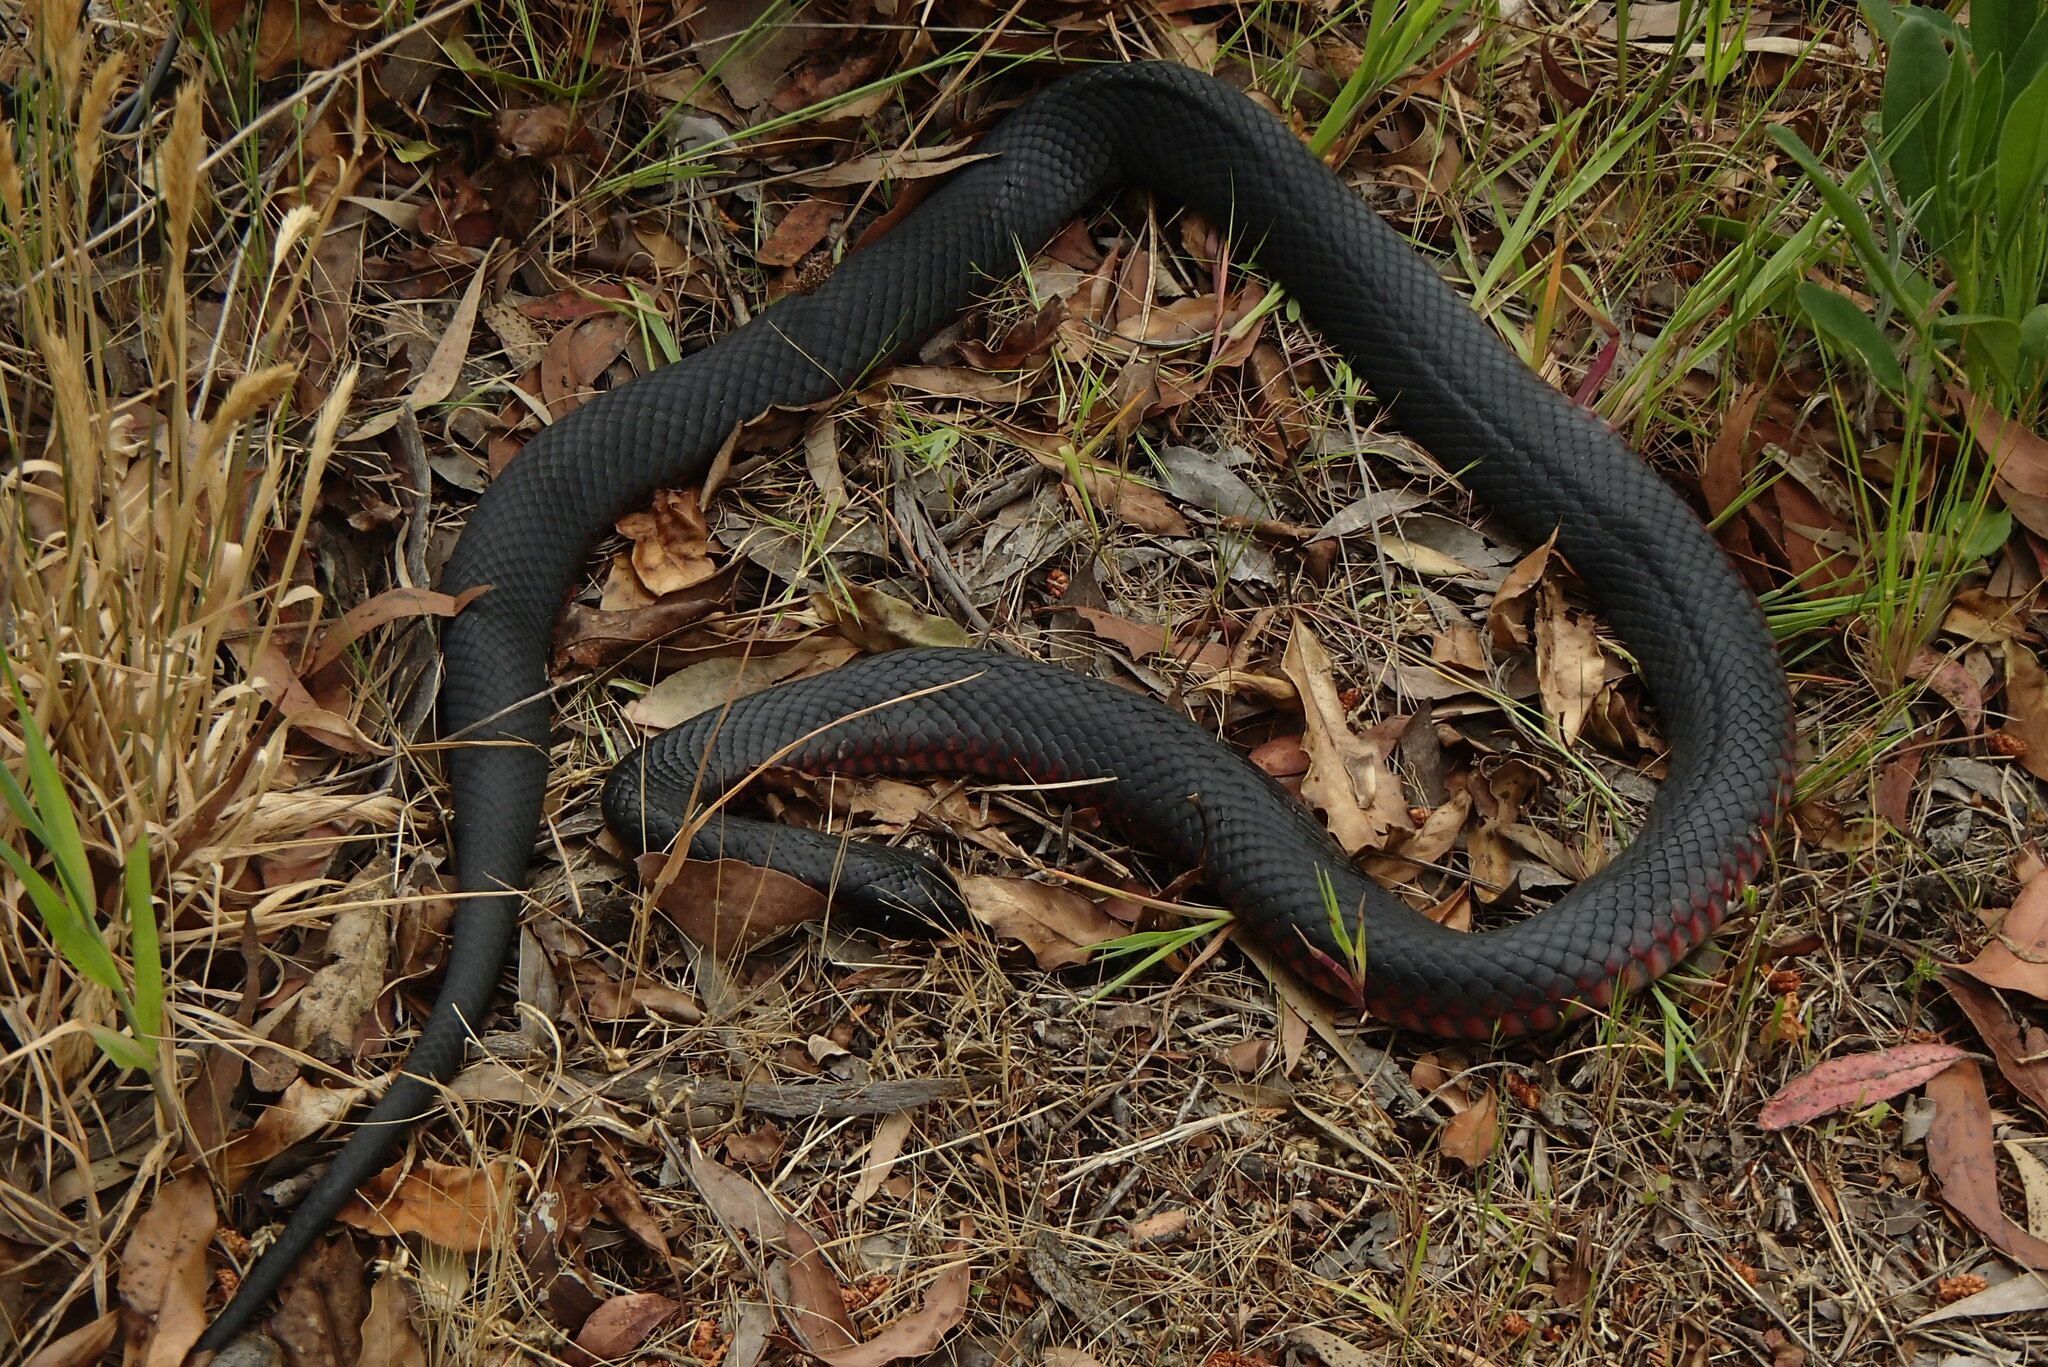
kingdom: Animalia
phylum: Chordata
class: Squamata
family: Elapidae
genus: Pseudechis
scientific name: Pseudechis porphyriacus
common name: Australian black snake
